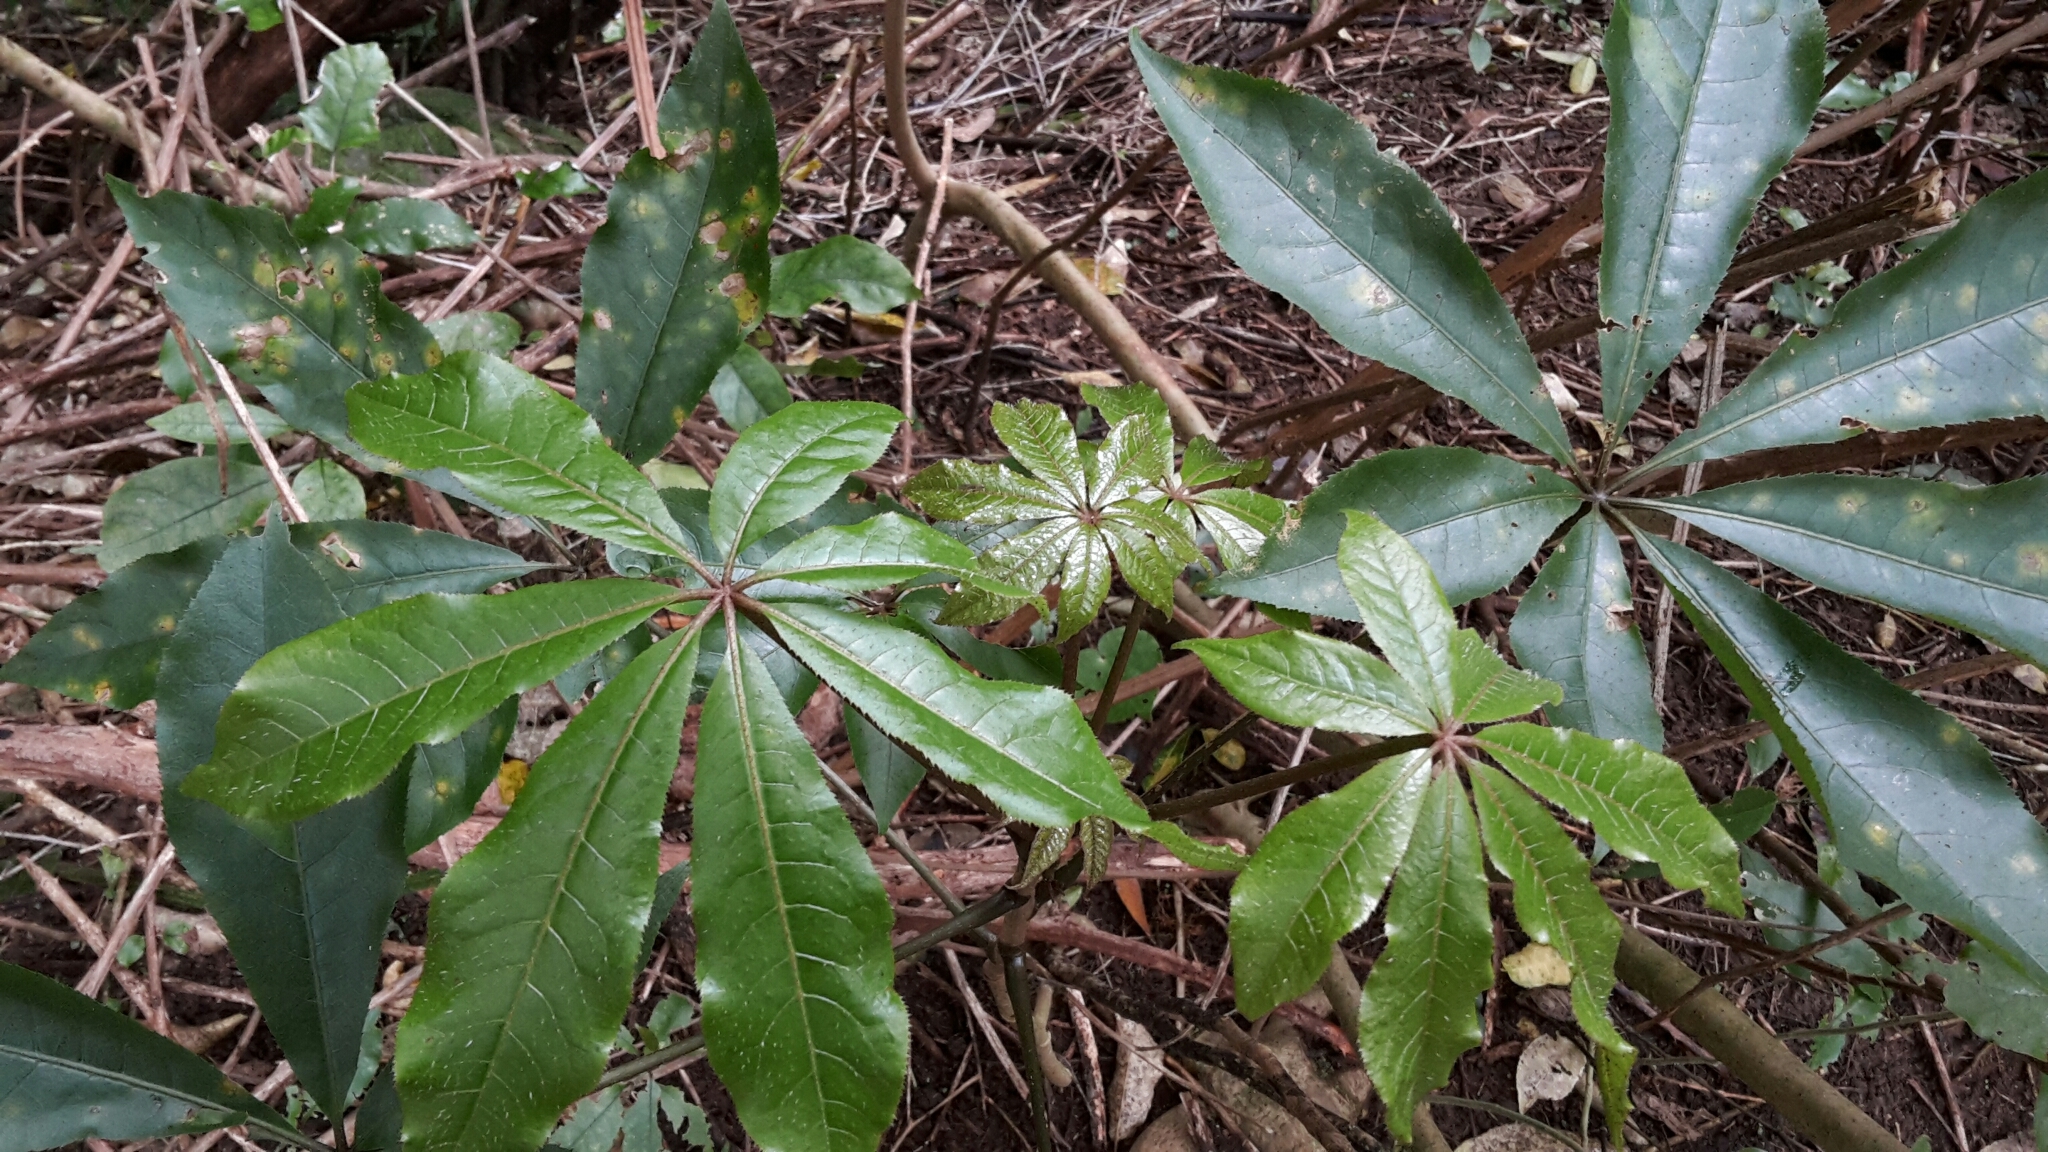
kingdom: Plantae
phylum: Tracheophyta
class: Magnoliopsida
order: Apiales
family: Araliaceae
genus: Schefflera
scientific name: Schefflera digitata
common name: Pate
